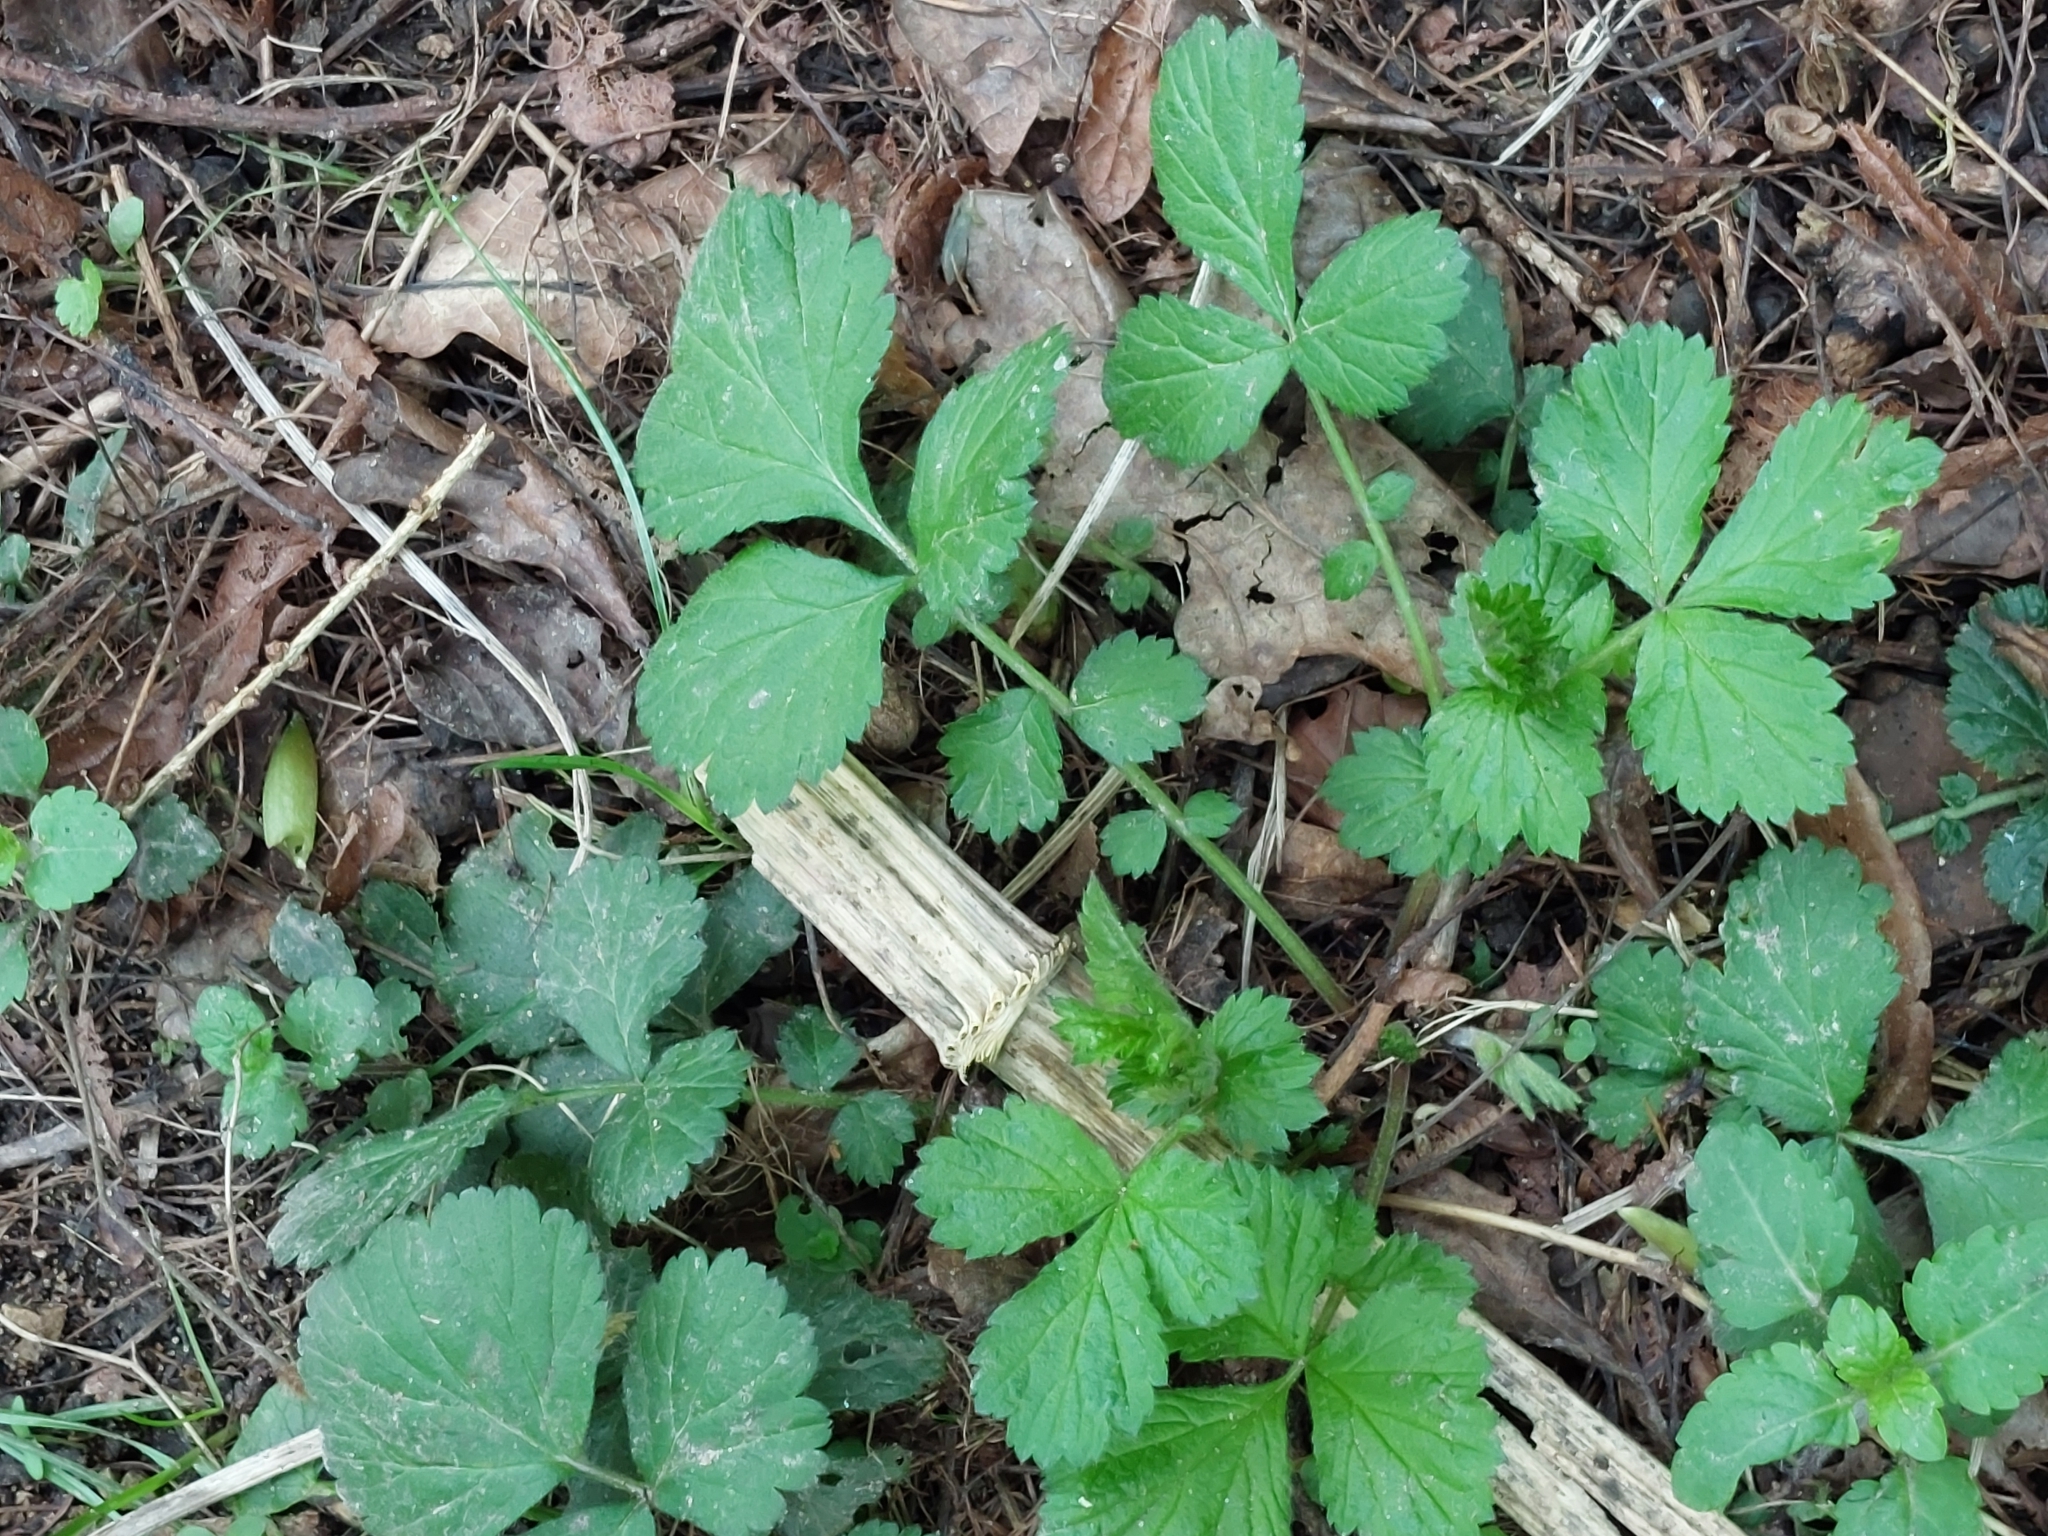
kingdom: Plantae
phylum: Tracheophyta
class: Magnoliopsida
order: Rosales
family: Rosaceae
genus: Geum
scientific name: Geum urbanum
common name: Wood avens
